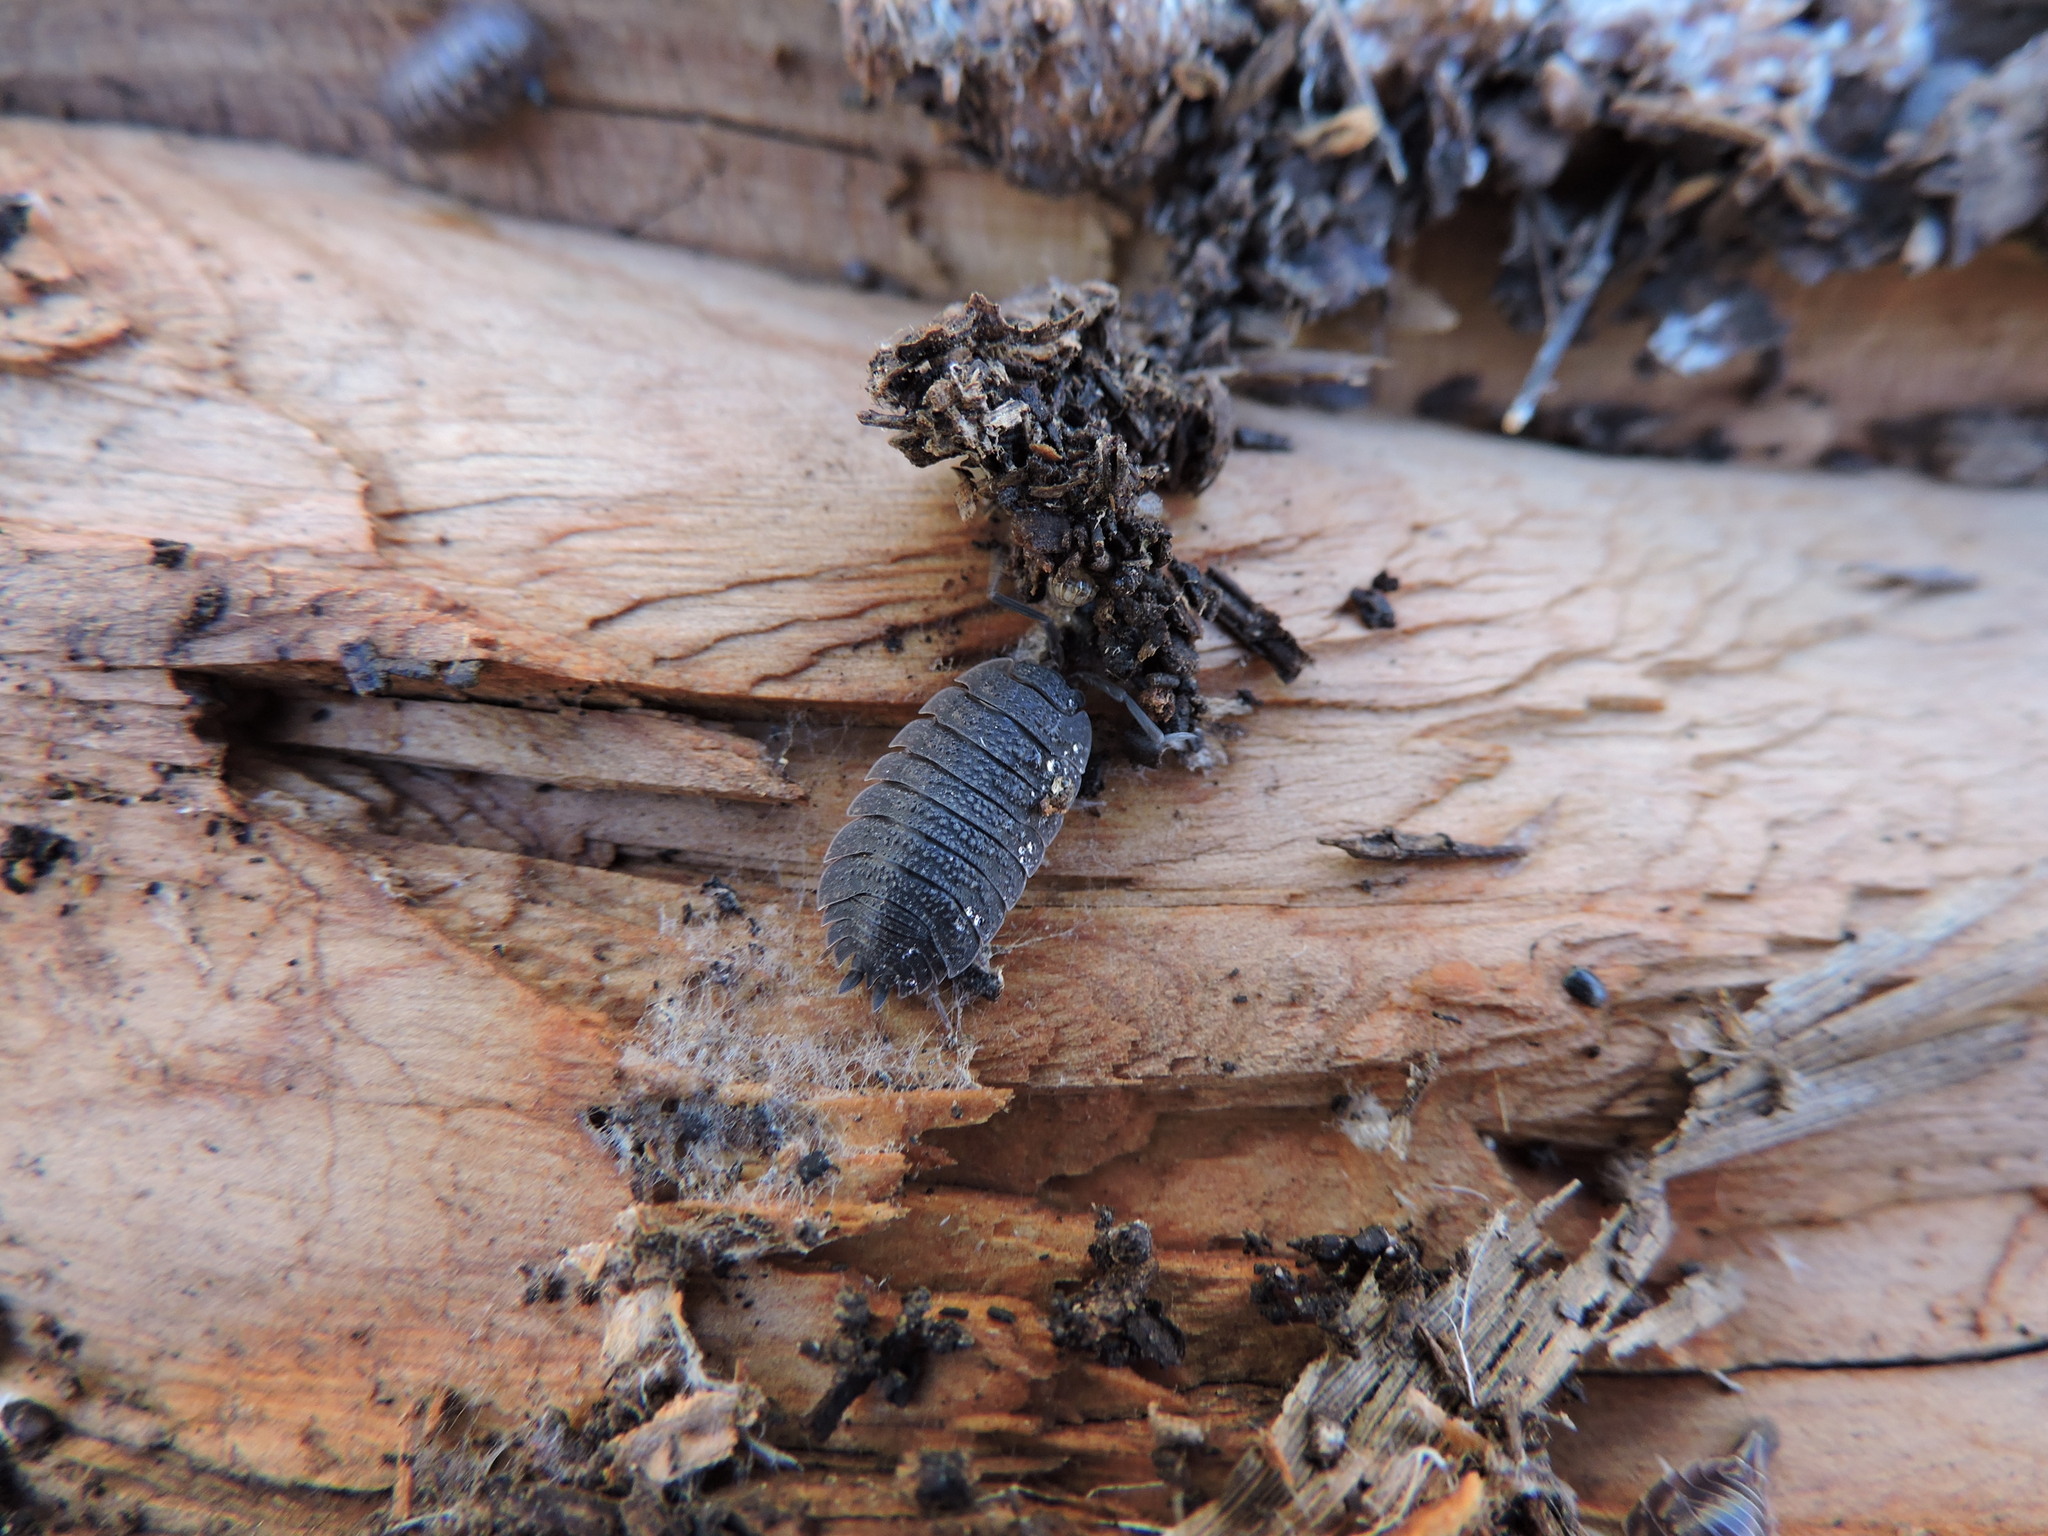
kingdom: Animalia
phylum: Arthropoda
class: Malacostraca
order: Isopoda
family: Porcellionidae
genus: Porcellio
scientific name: Porcellio scaber
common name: Common rough woodlouse
